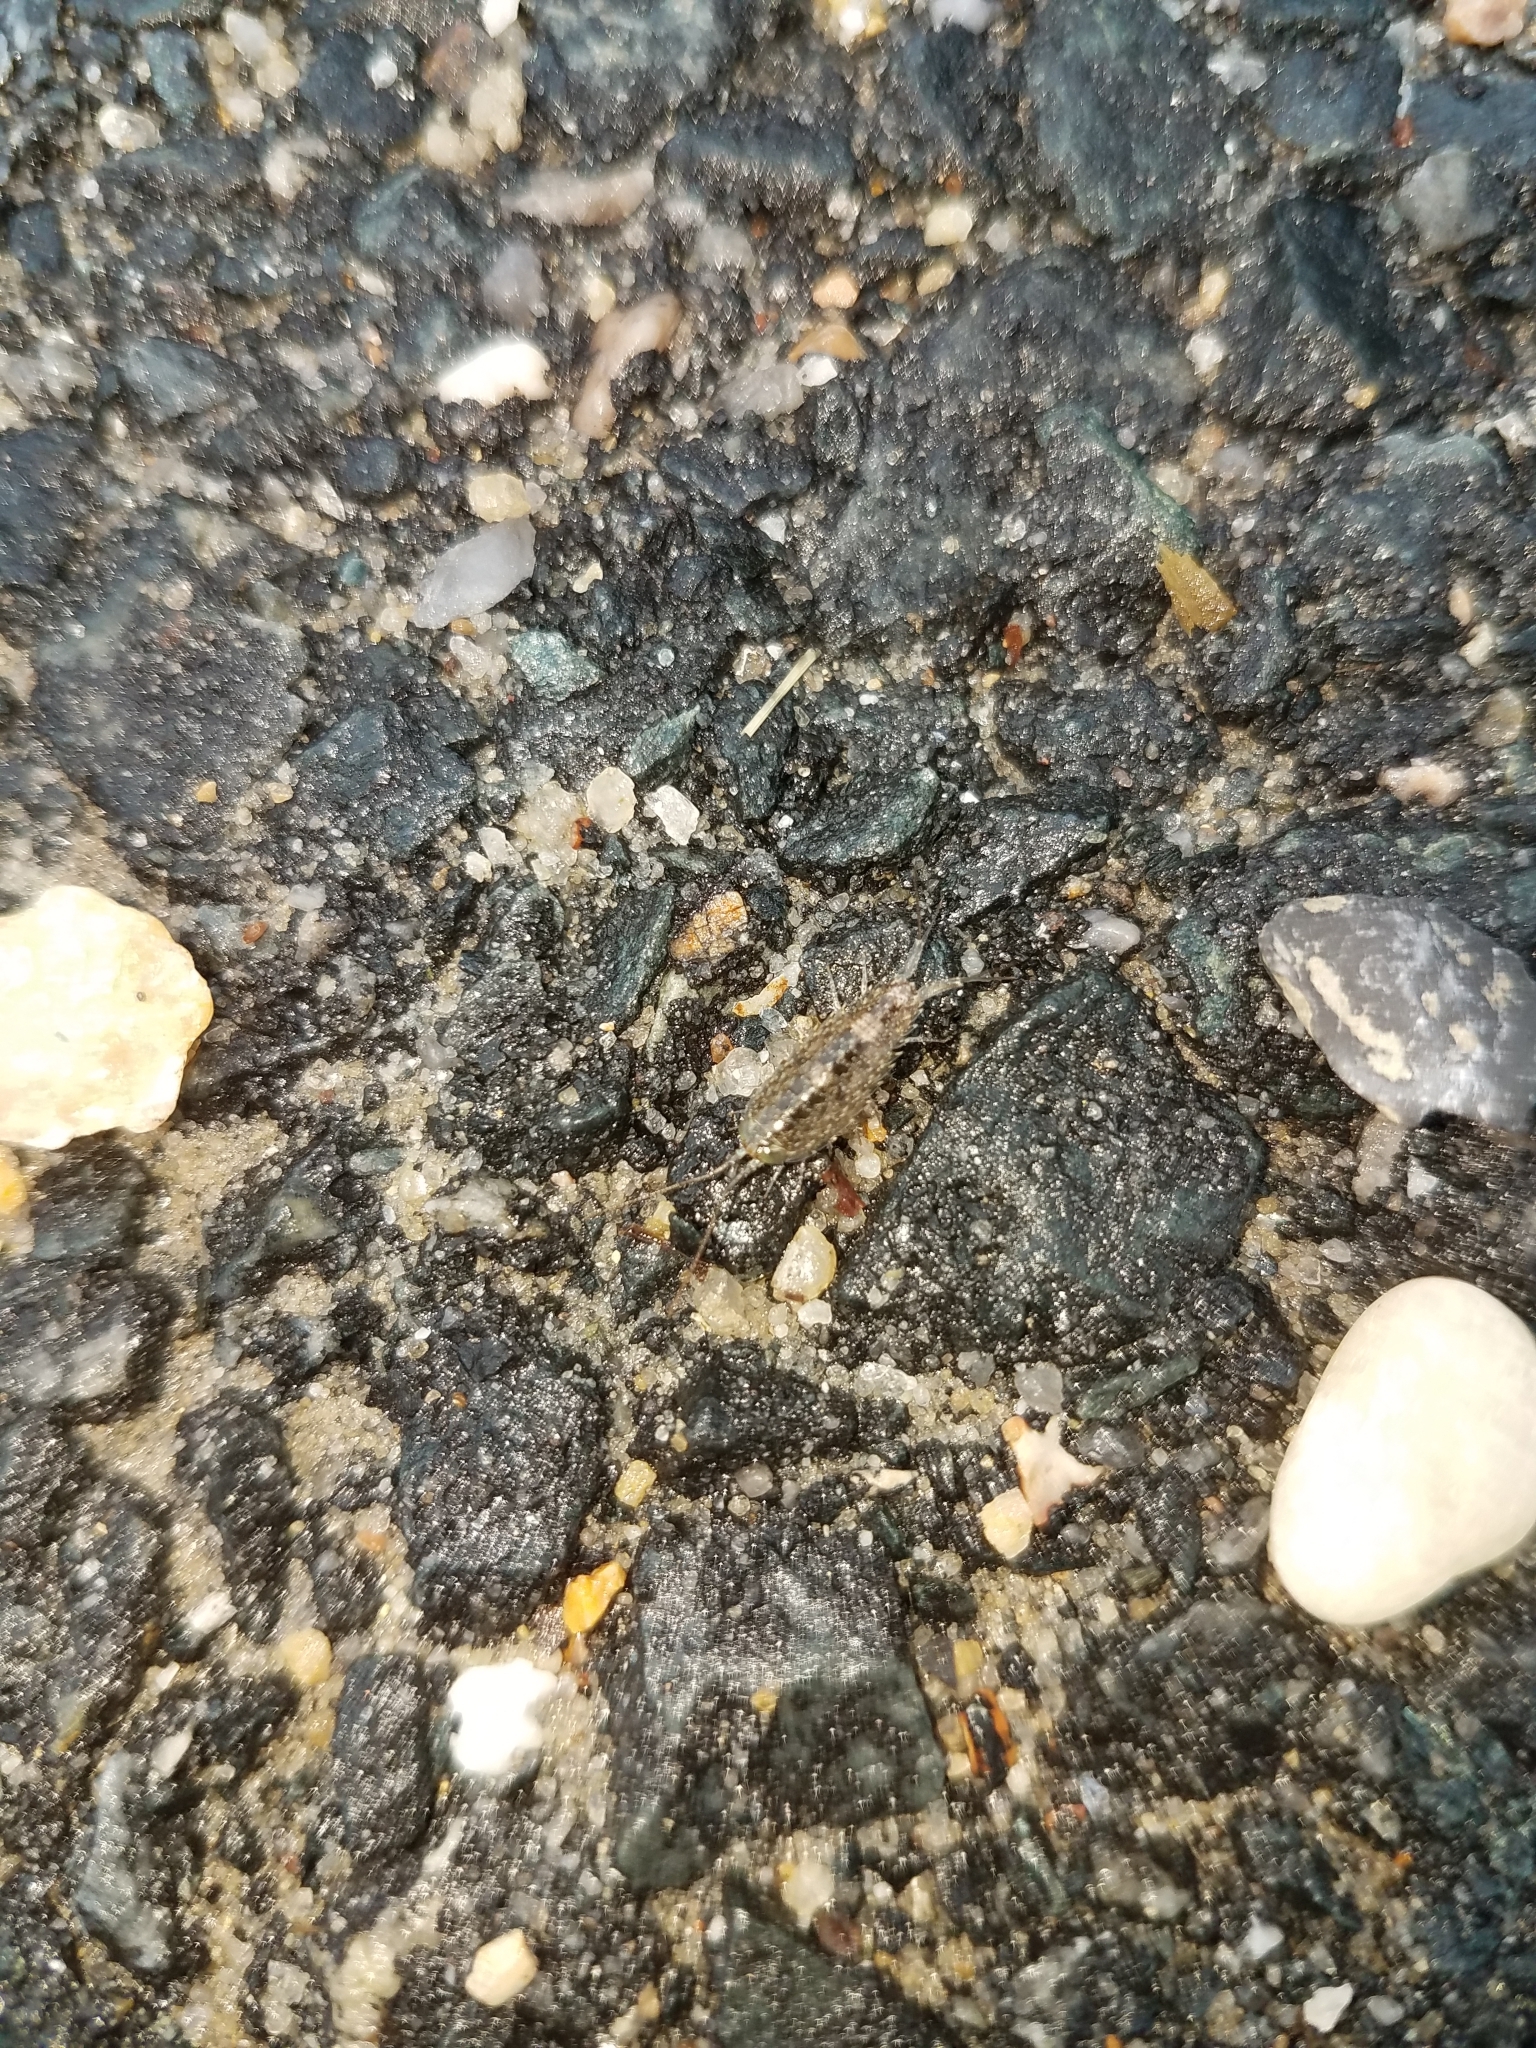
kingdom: Animalia
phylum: Arthropoda
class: Malacostraca
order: Isopoda
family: Ligiidae
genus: Ligia
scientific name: Ligia exotica
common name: Wharf roach
